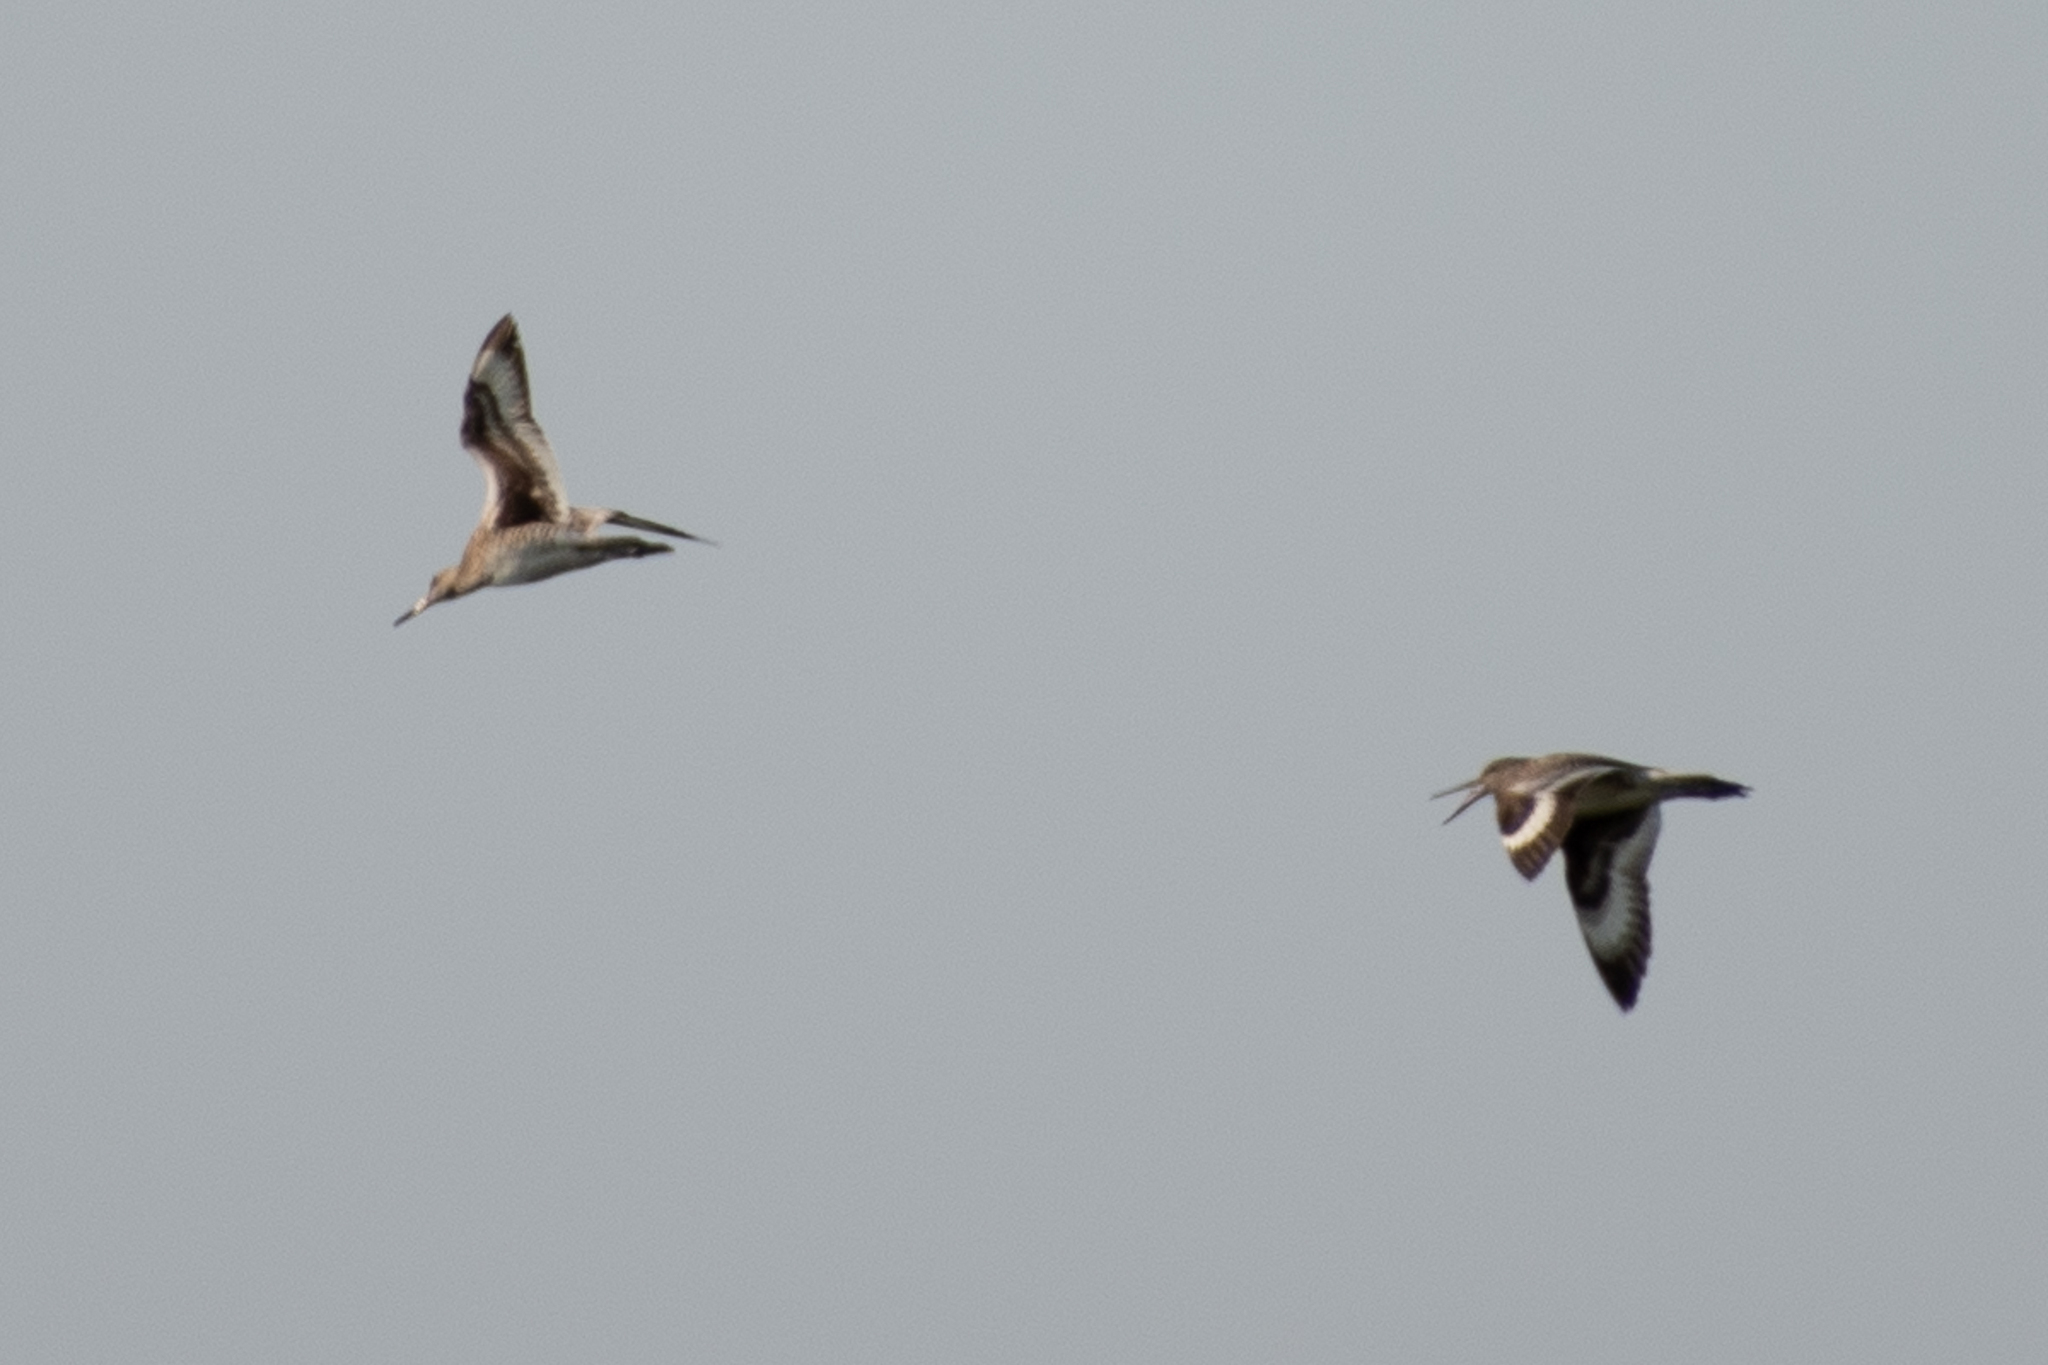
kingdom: Animalia
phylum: Chordata
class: Aves
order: Charadriiformes
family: Scolopacidae
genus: Tringa
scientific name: Tringa semipalmata
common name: Willet
